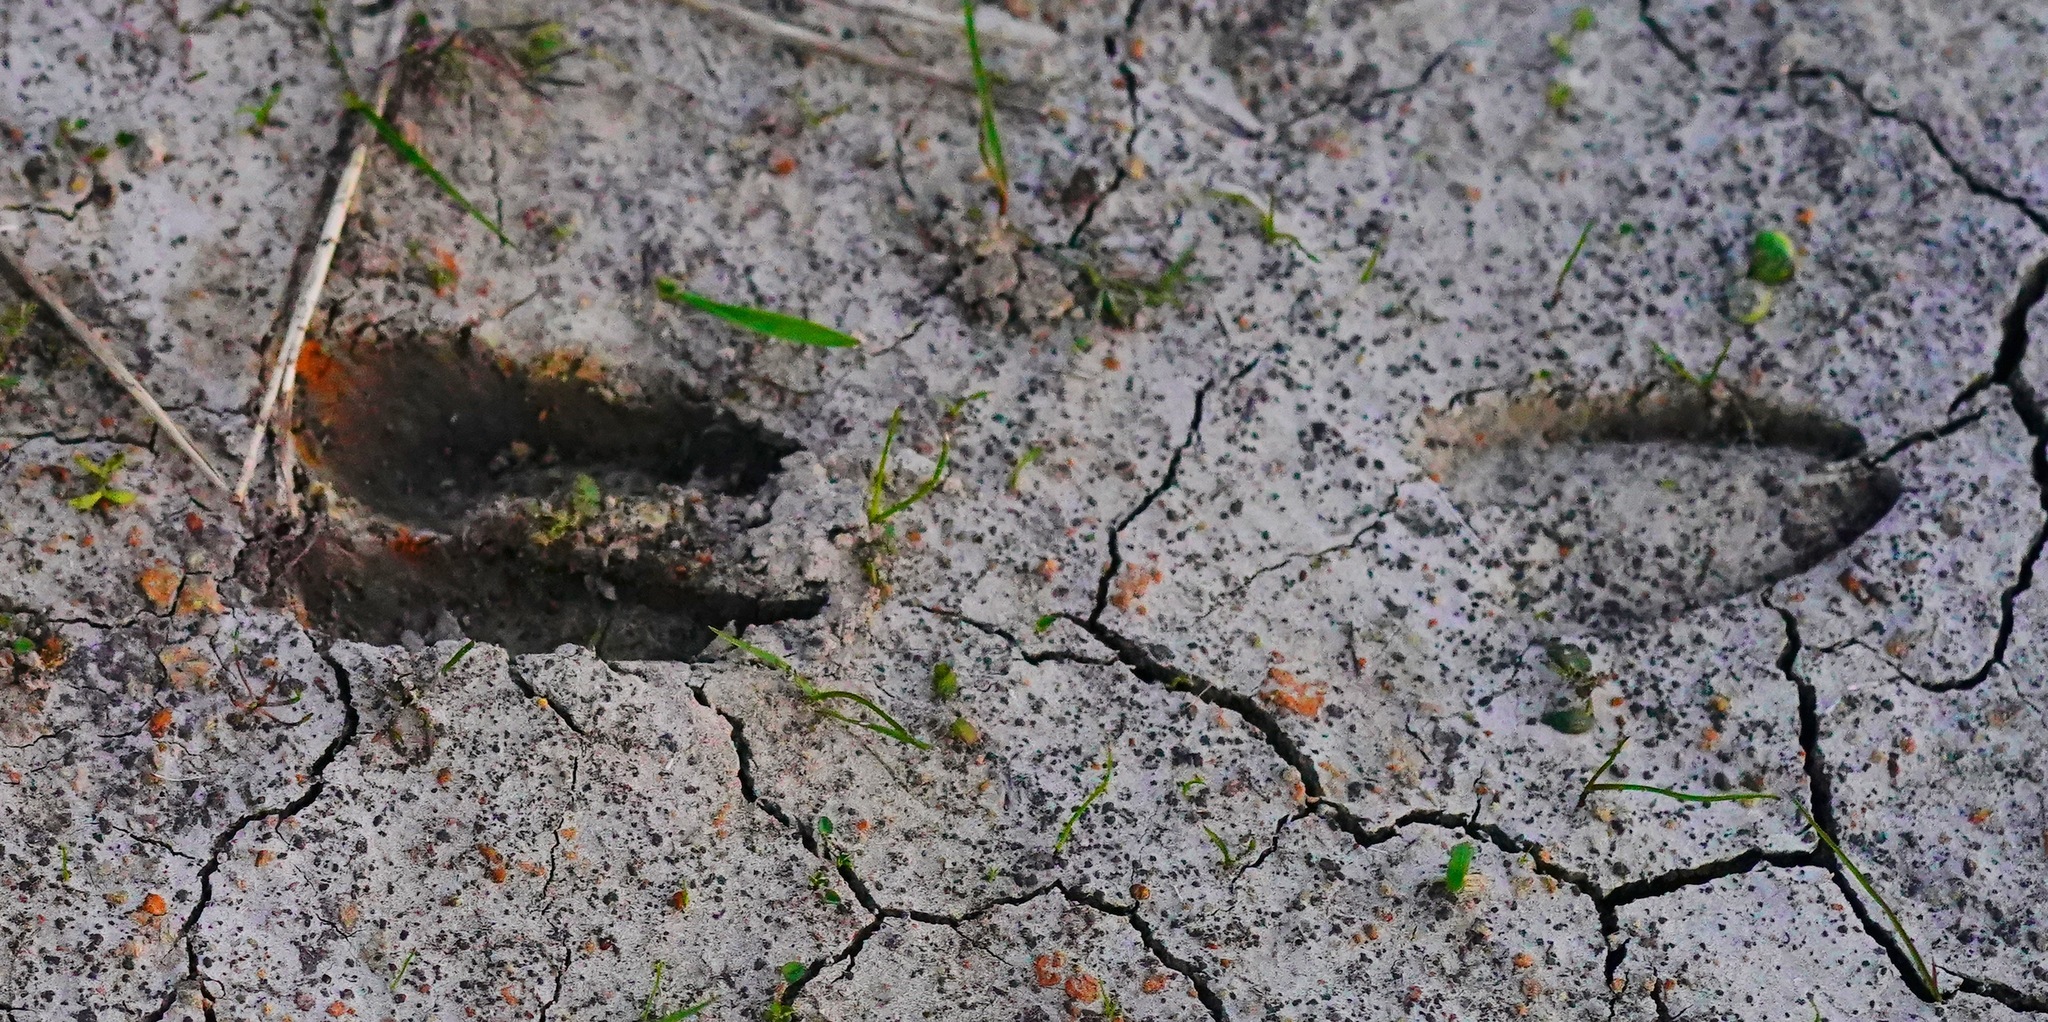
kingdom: Animalia
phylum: Chordata
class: Mammalia
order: Artiodactyla
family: Cervidae
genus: Odocoileus
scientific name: Odocoileus hemionus
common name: Mule deer
